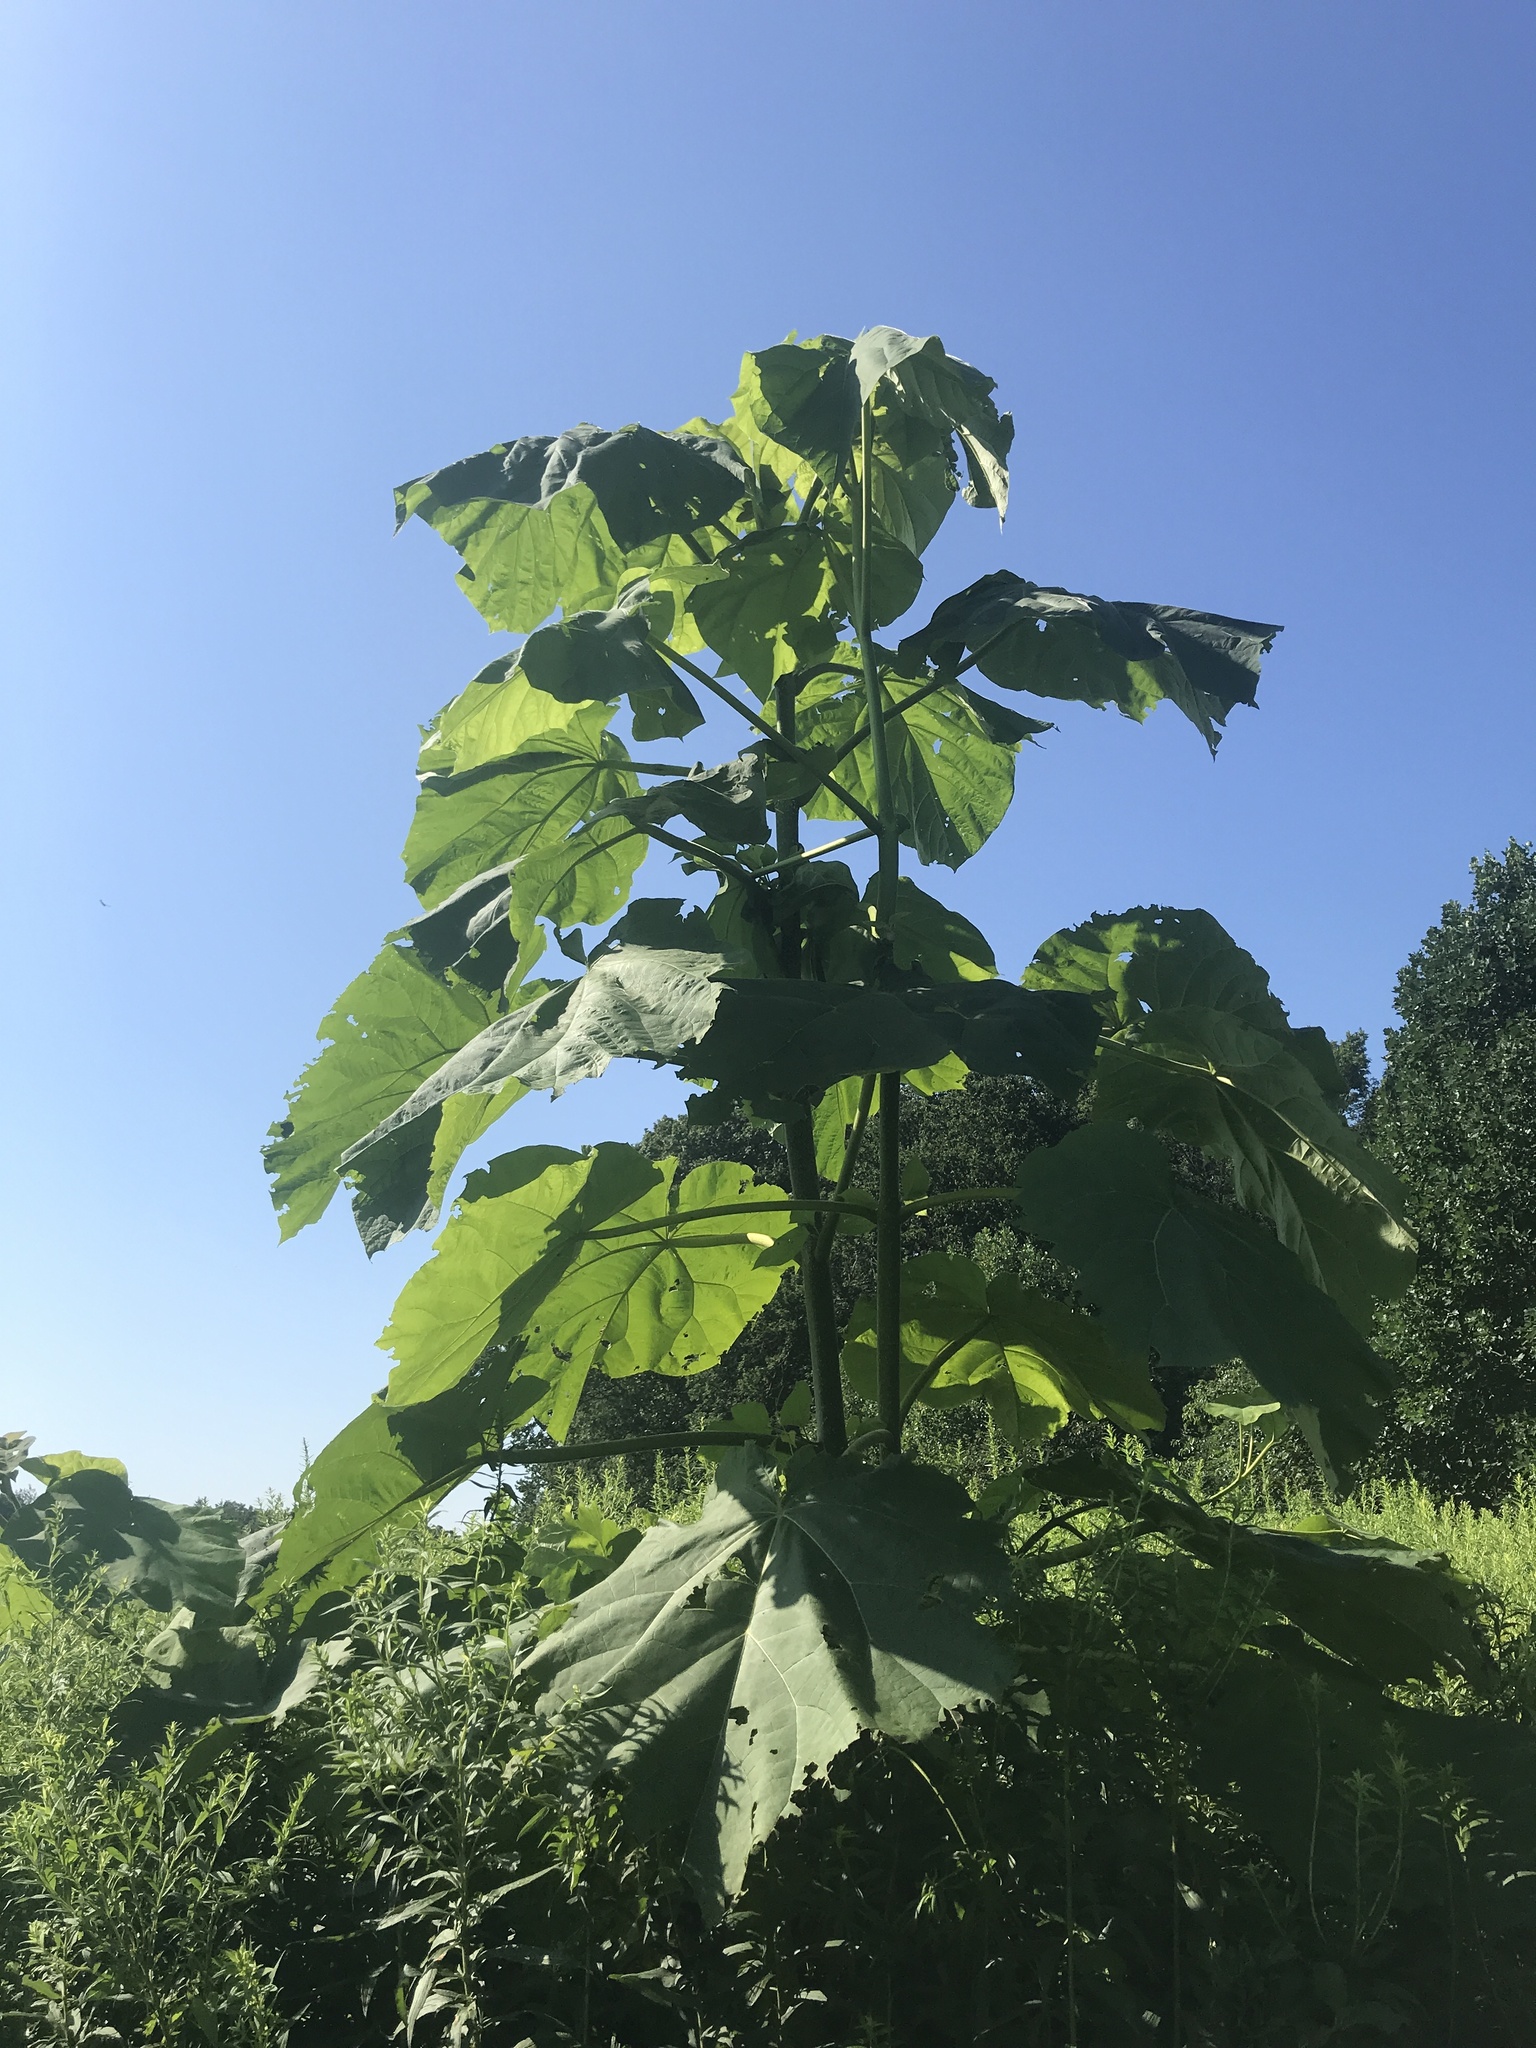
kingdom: Plantae
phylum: Tracheophyta
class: Magnoliopsida
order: Lamiales
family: Paulowniaceae
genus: Paulownia
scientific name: Paulownia tomentosa
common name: Foxglove-tree
